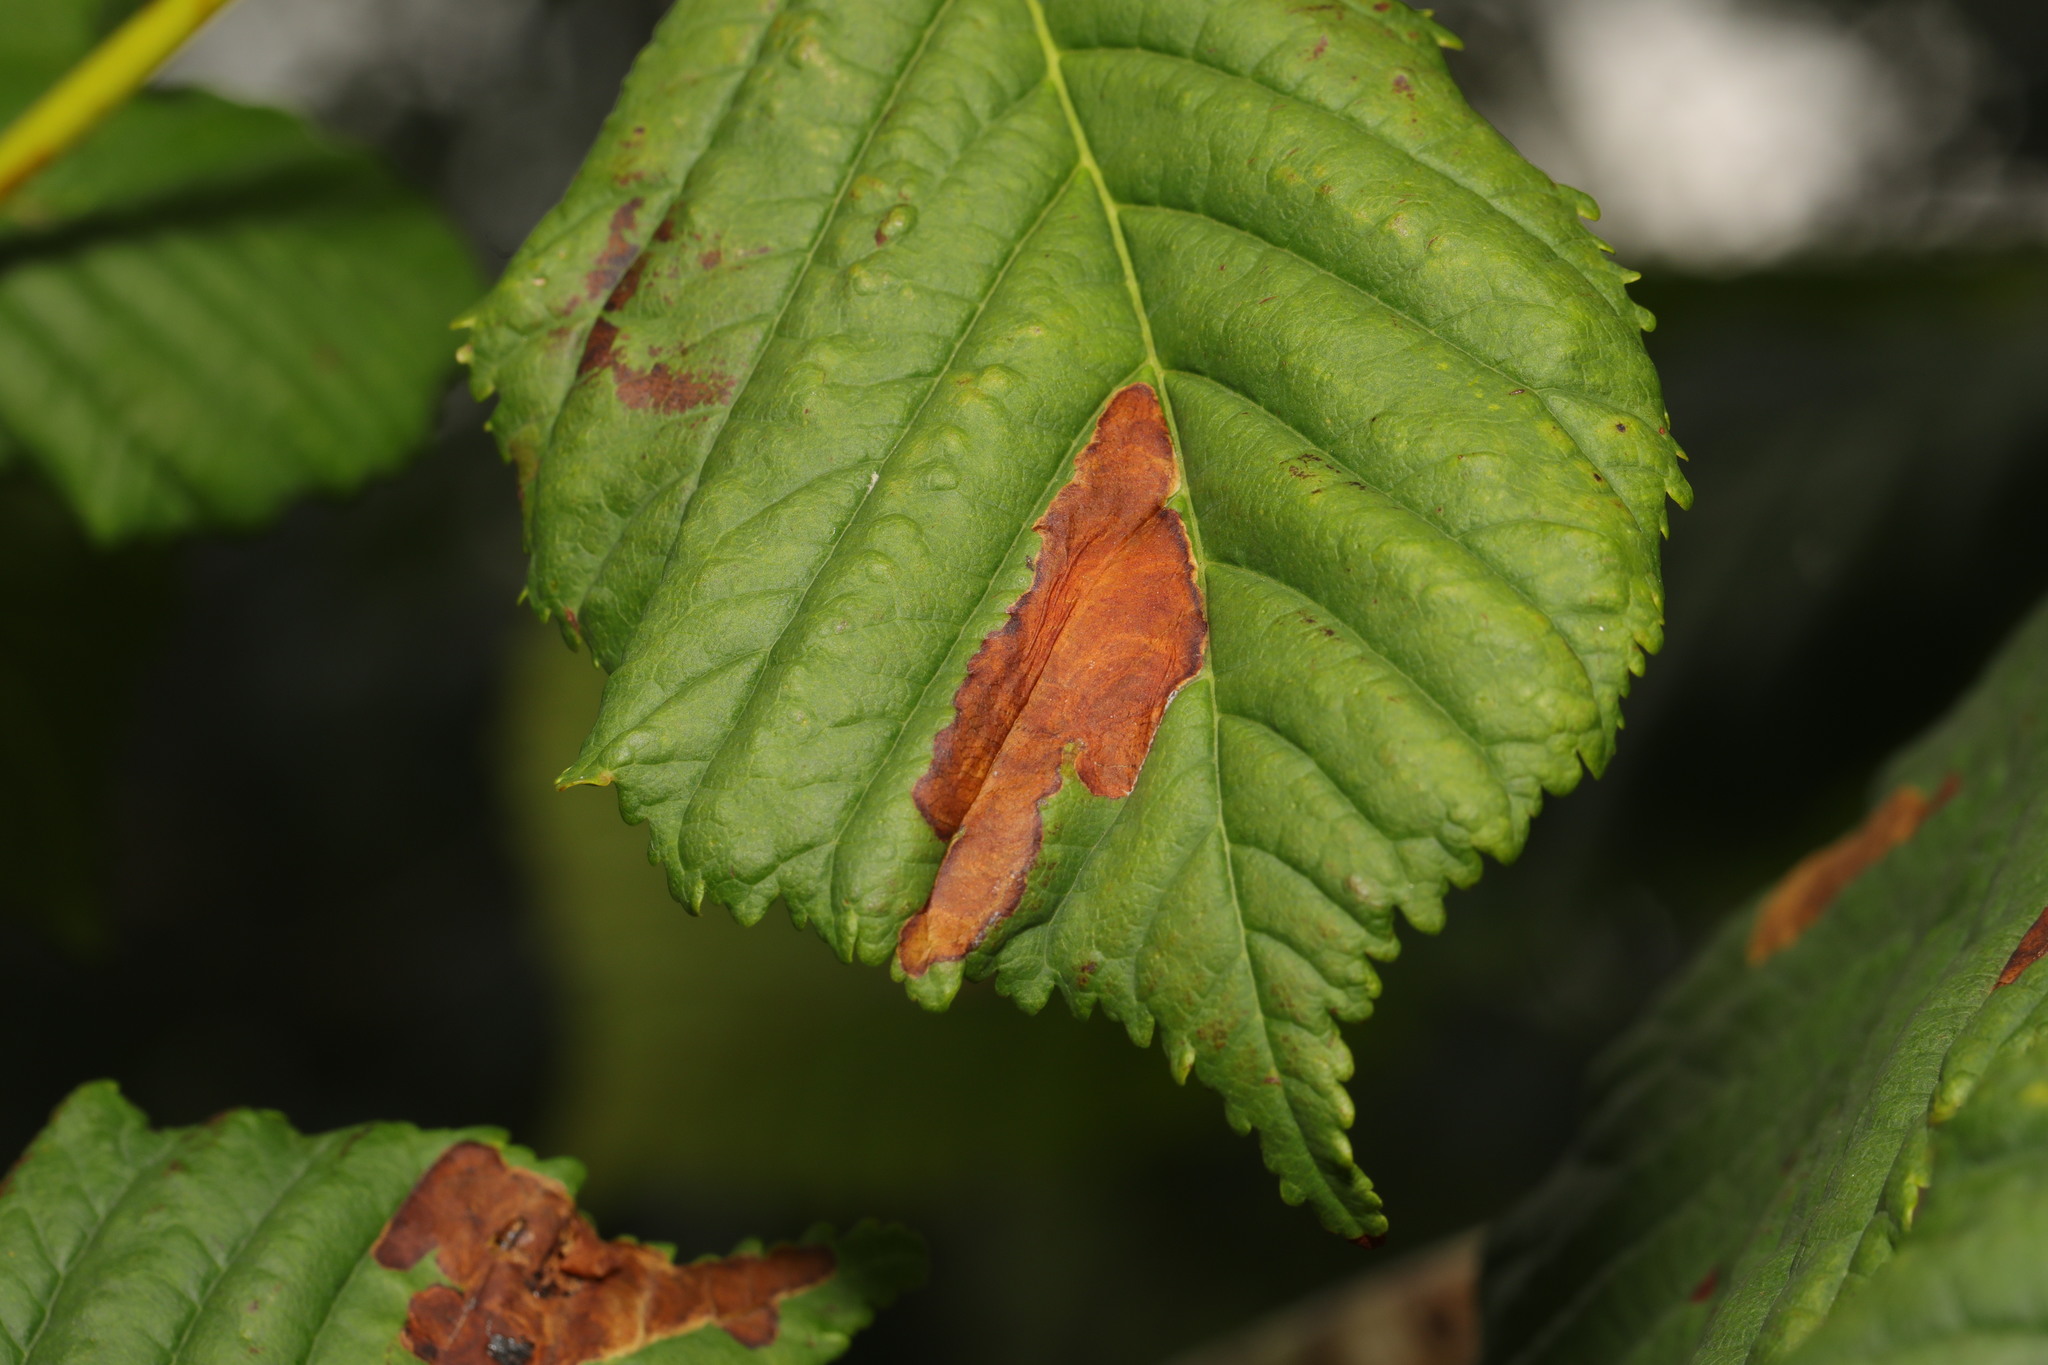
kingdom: Fungi
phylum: Ascomycota
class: Dothideomycetes
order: Botryosphaeriales
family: Phyllostictaceae
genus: Phyllosticta
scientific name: Phyllosticta paviae
